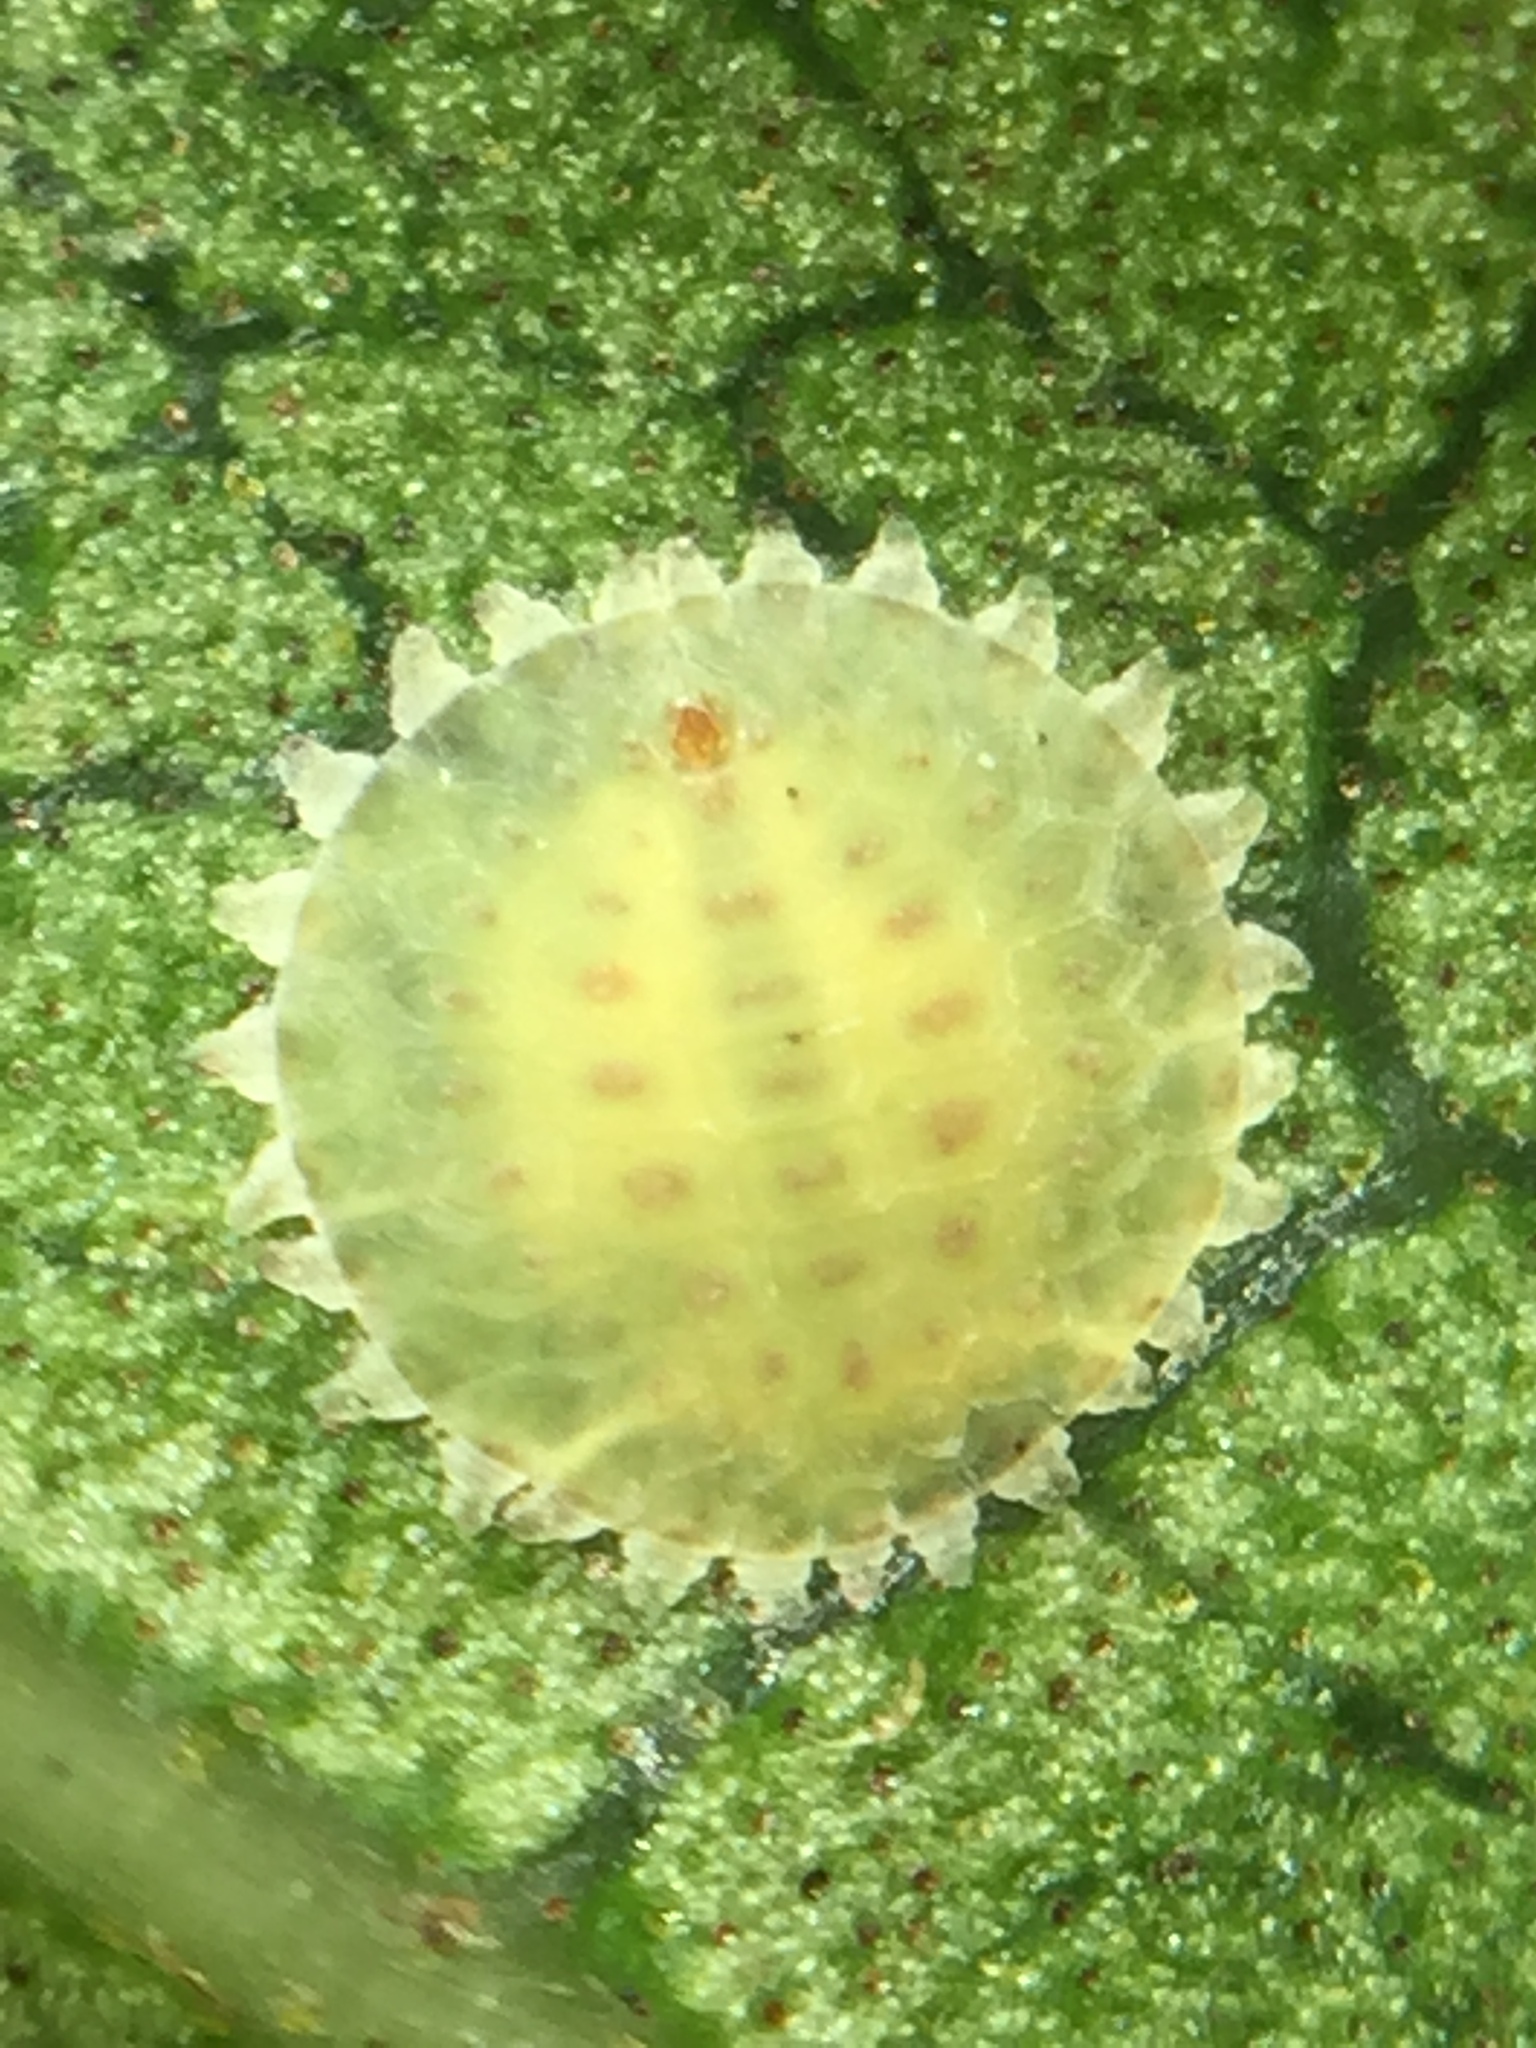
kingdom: Animalia
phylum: Arthropoda
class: Insecta
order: Hemiptera
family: Coccidae
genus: Epelidochiton
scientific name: Epelidochiton piperis
